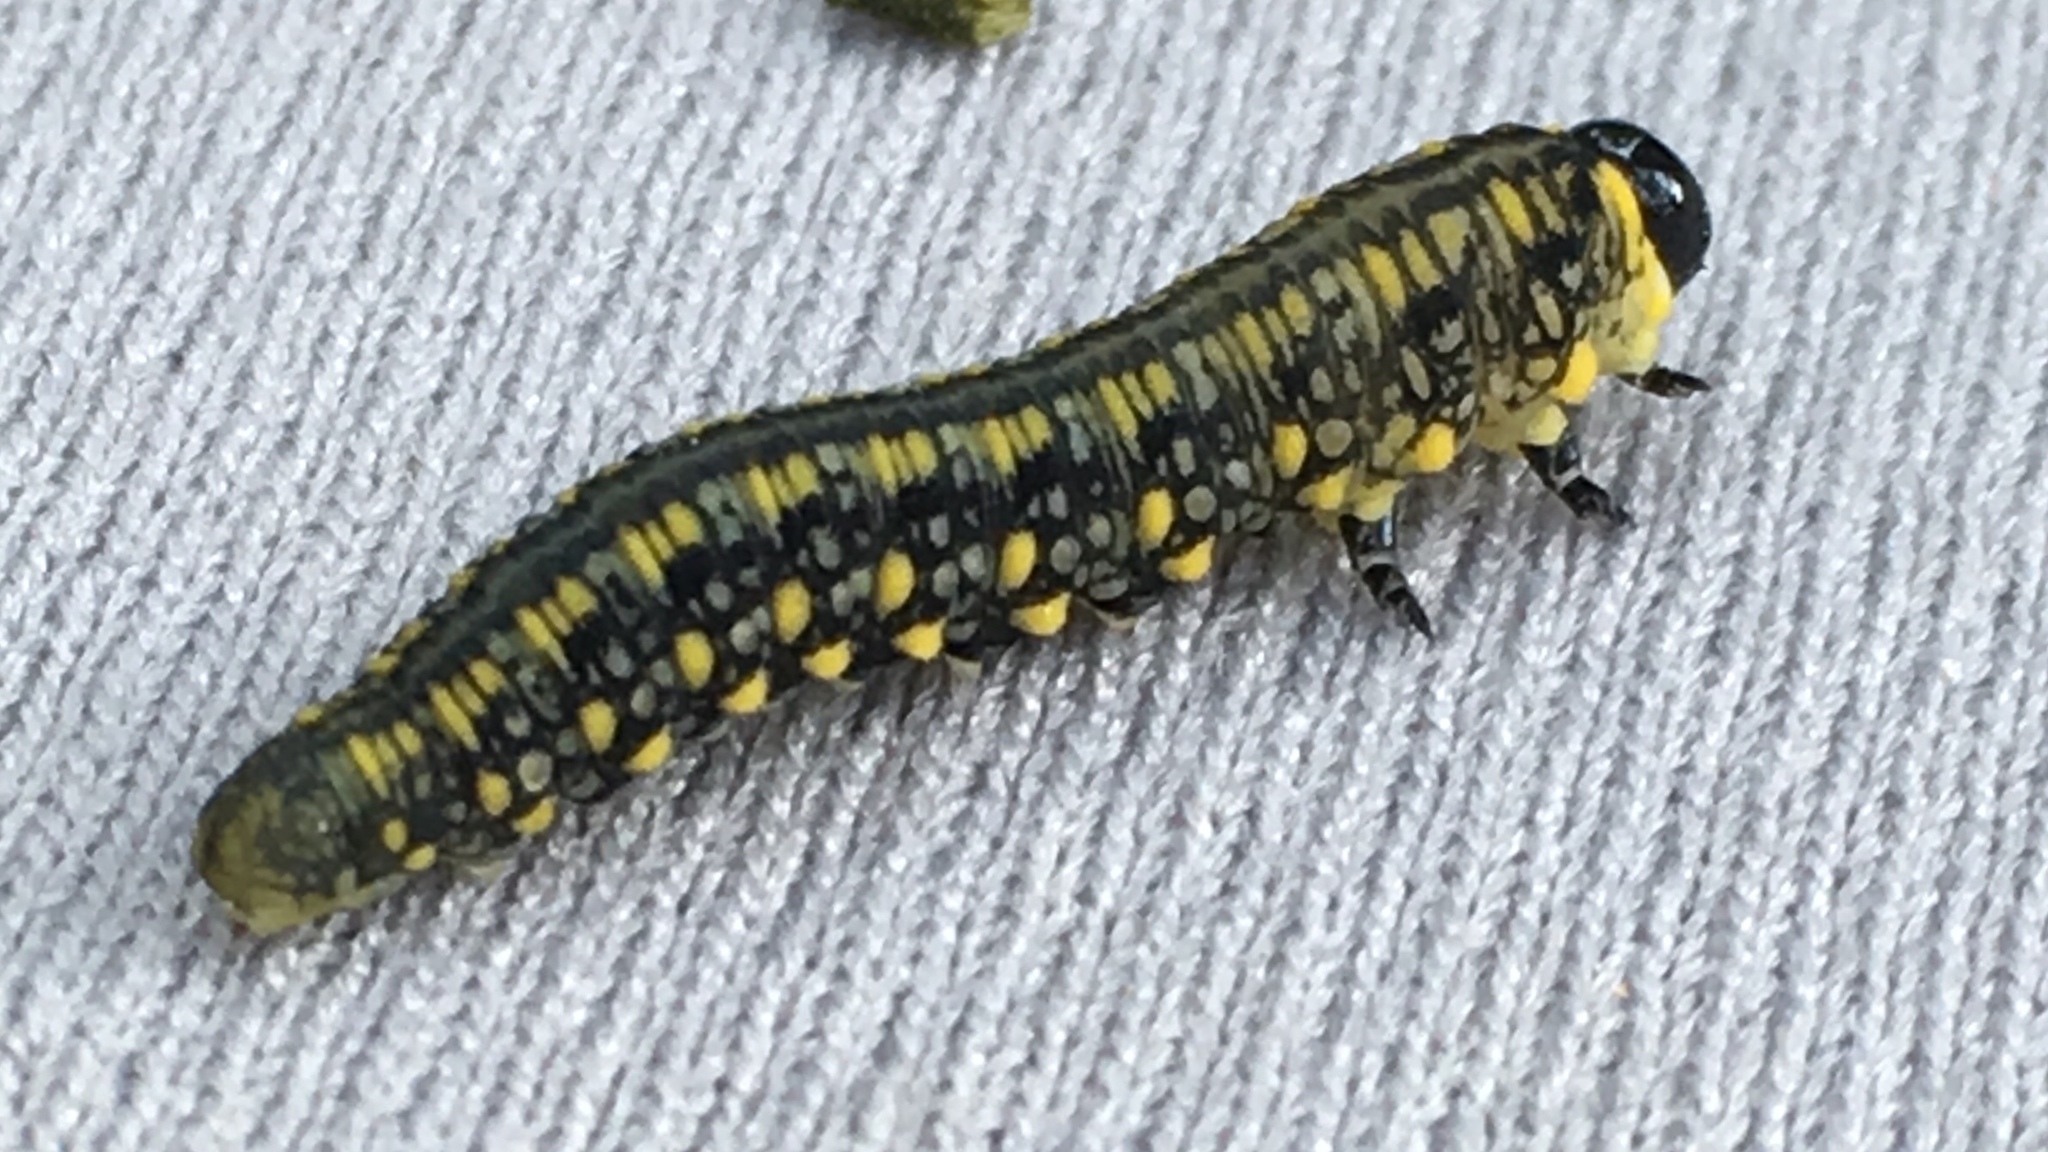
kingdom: Animalia
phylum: Arthropoda
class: Insecta
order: Hymenoptera
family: Diprionidae
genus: Diprion
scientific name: Diprion similis
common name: Pine sawfly
